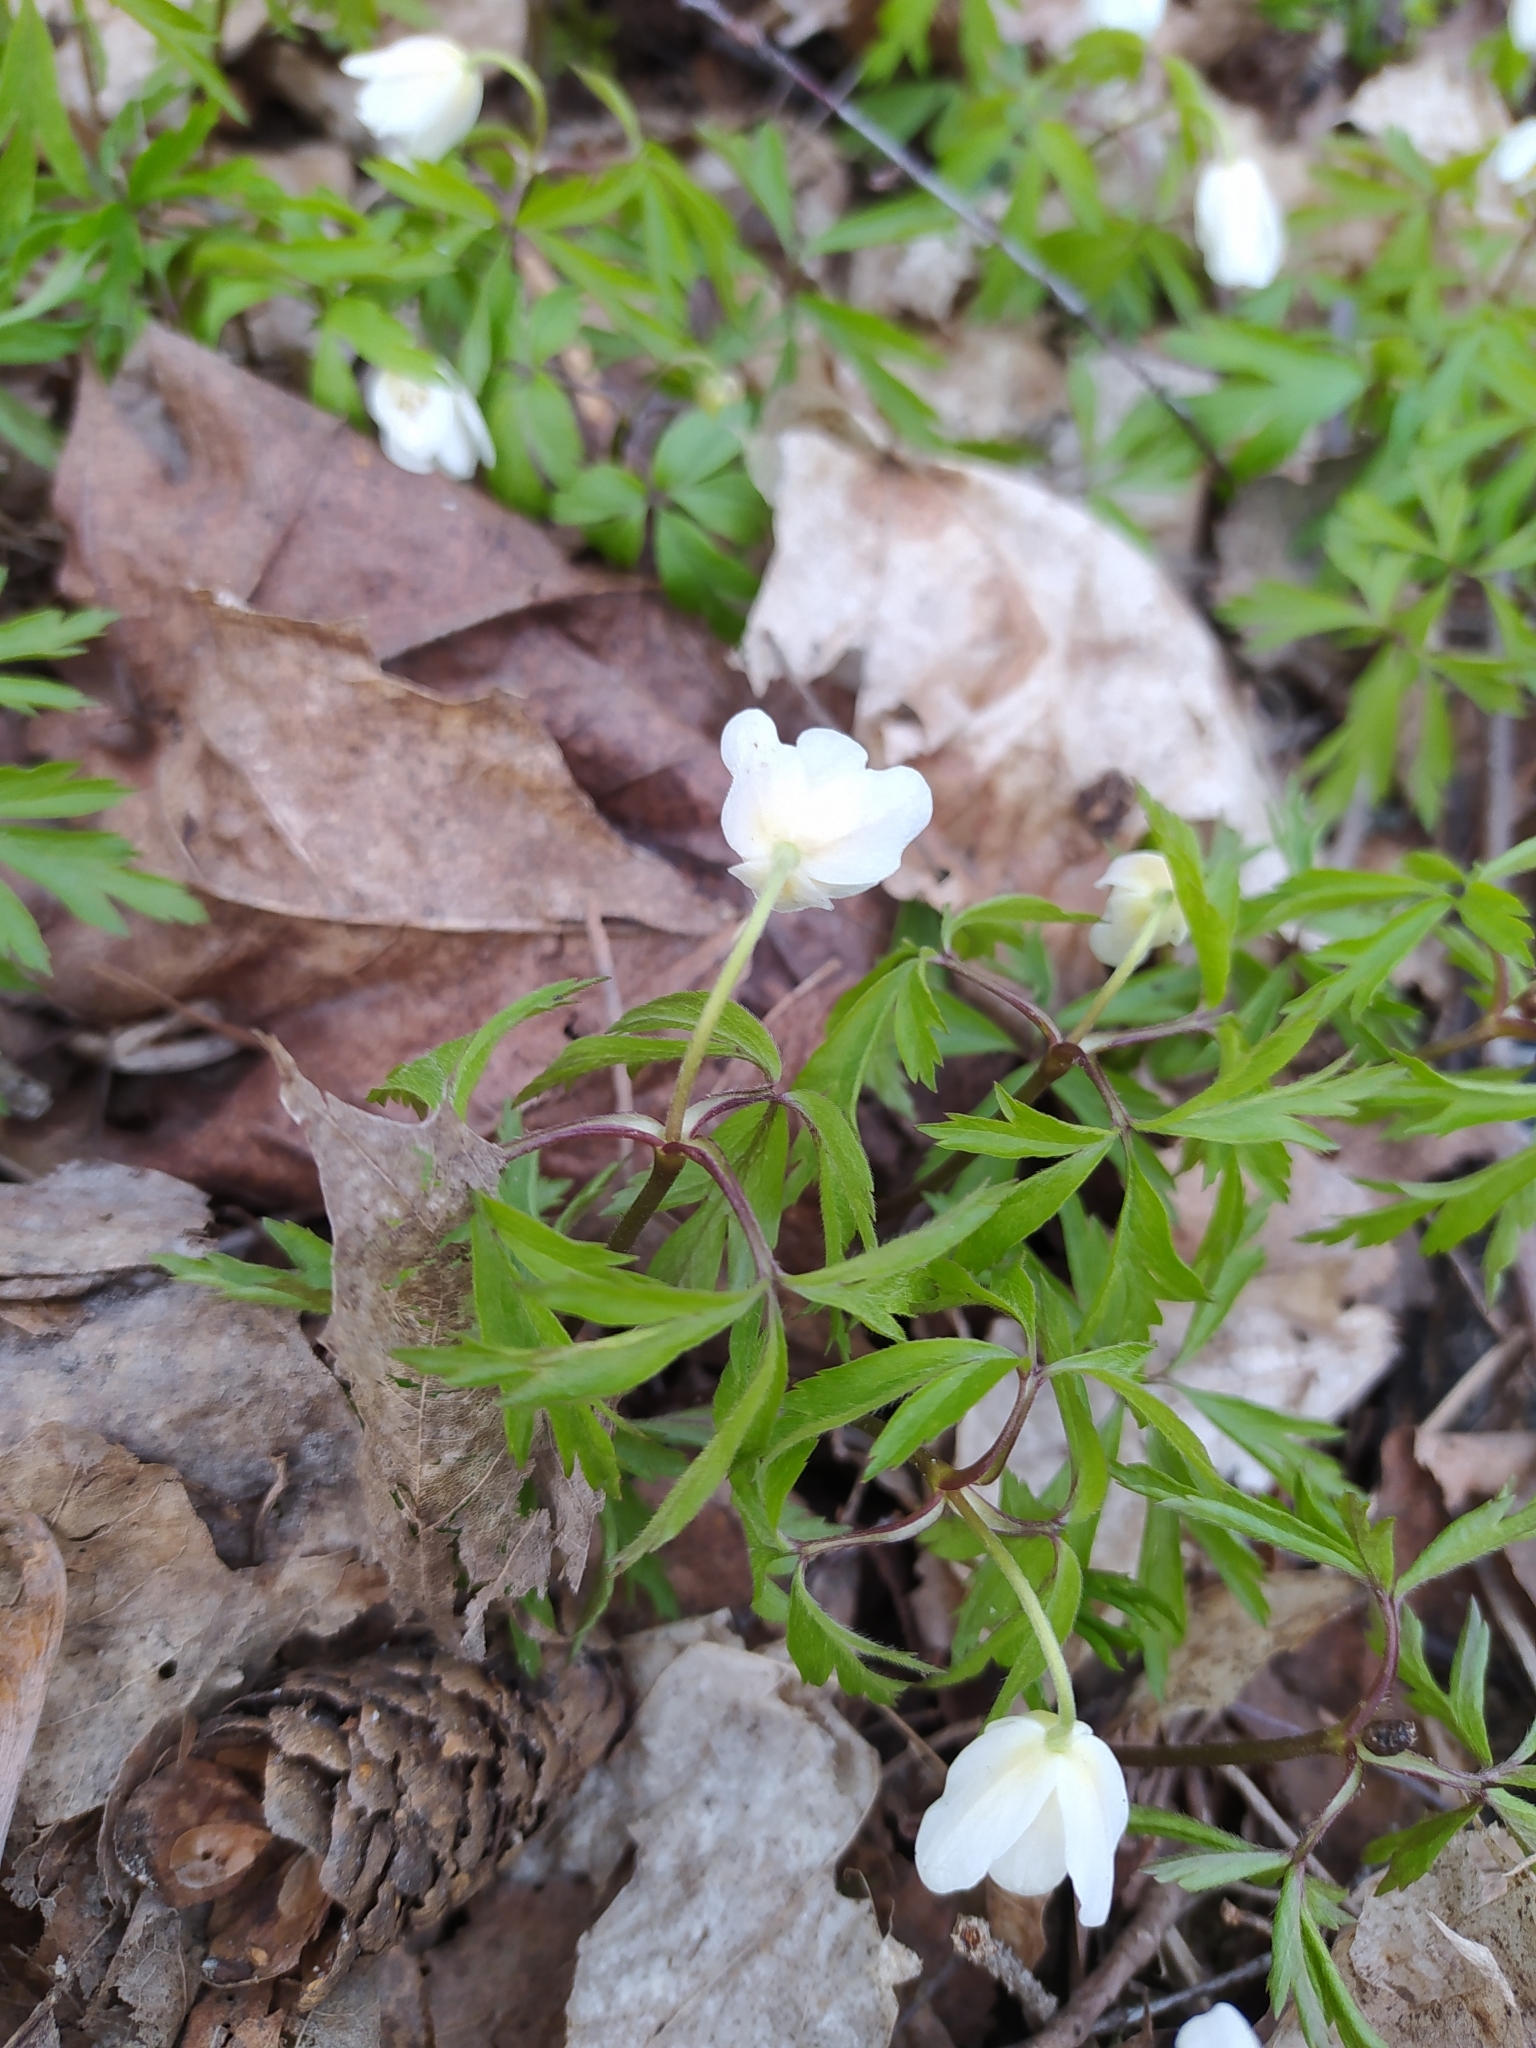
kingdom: Plantae
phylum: Tracheophyta
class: Magnoliopsida
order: Ranunculales
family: Ranunculaceae
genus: Anemone
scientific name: Anemone nemorosa
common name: Wood anemone
